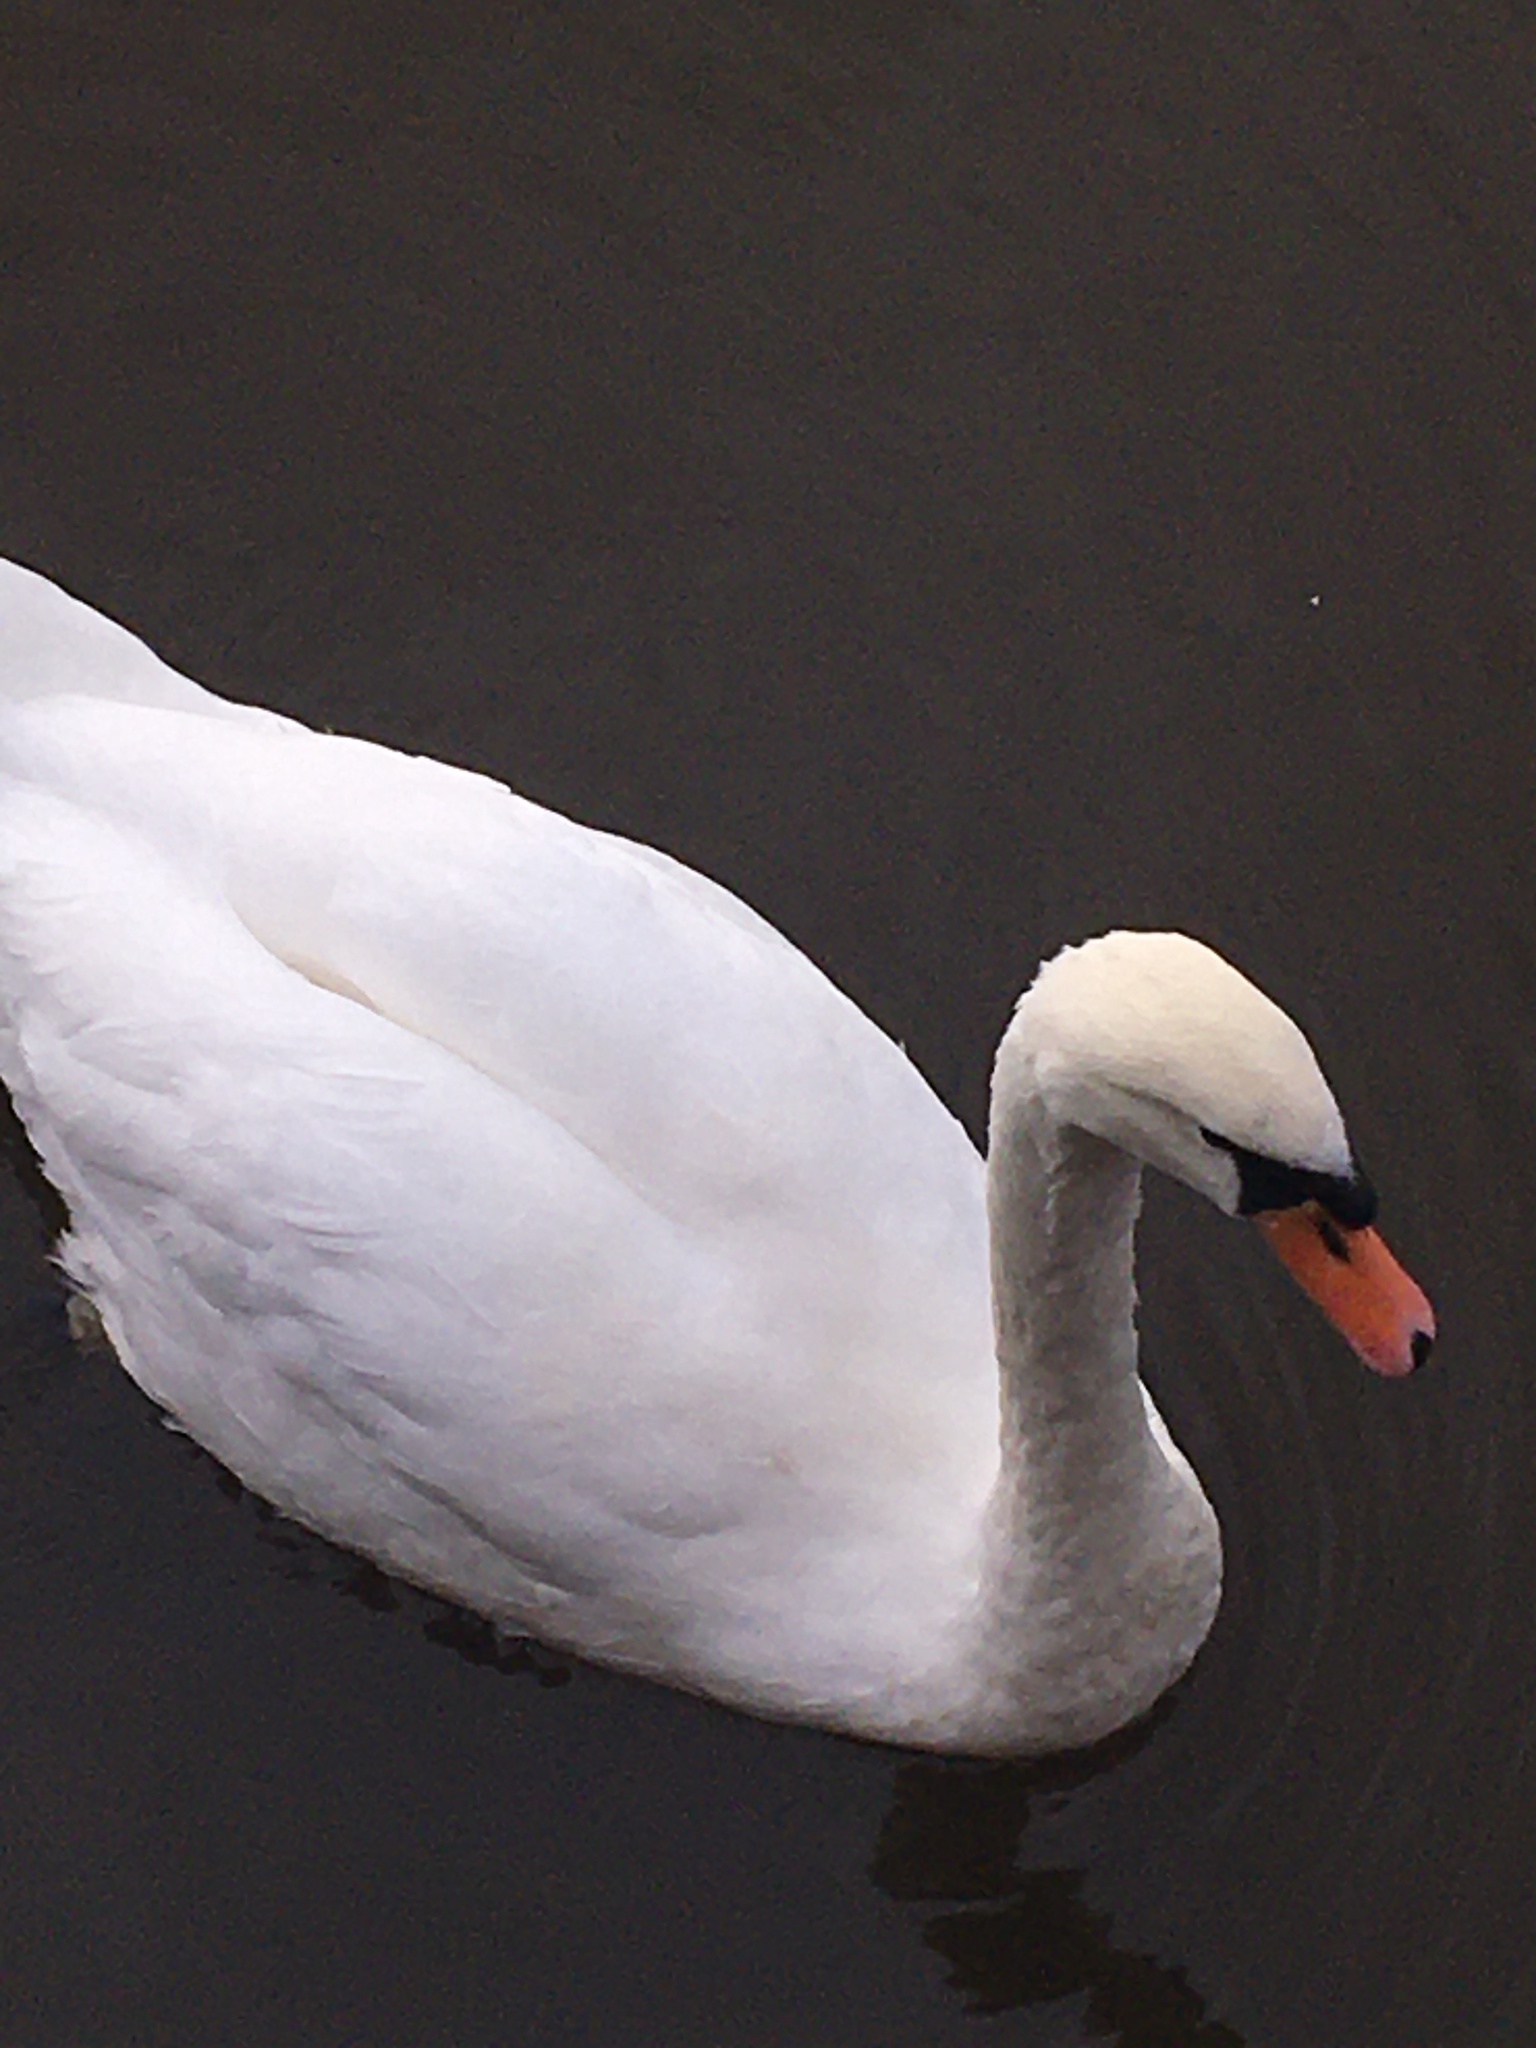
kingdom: Animalia
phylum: Chordata
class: Aves
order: Anseriformes
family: Anatidae
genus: Cygnus
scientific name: Cygnus olor
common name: Mute swan
